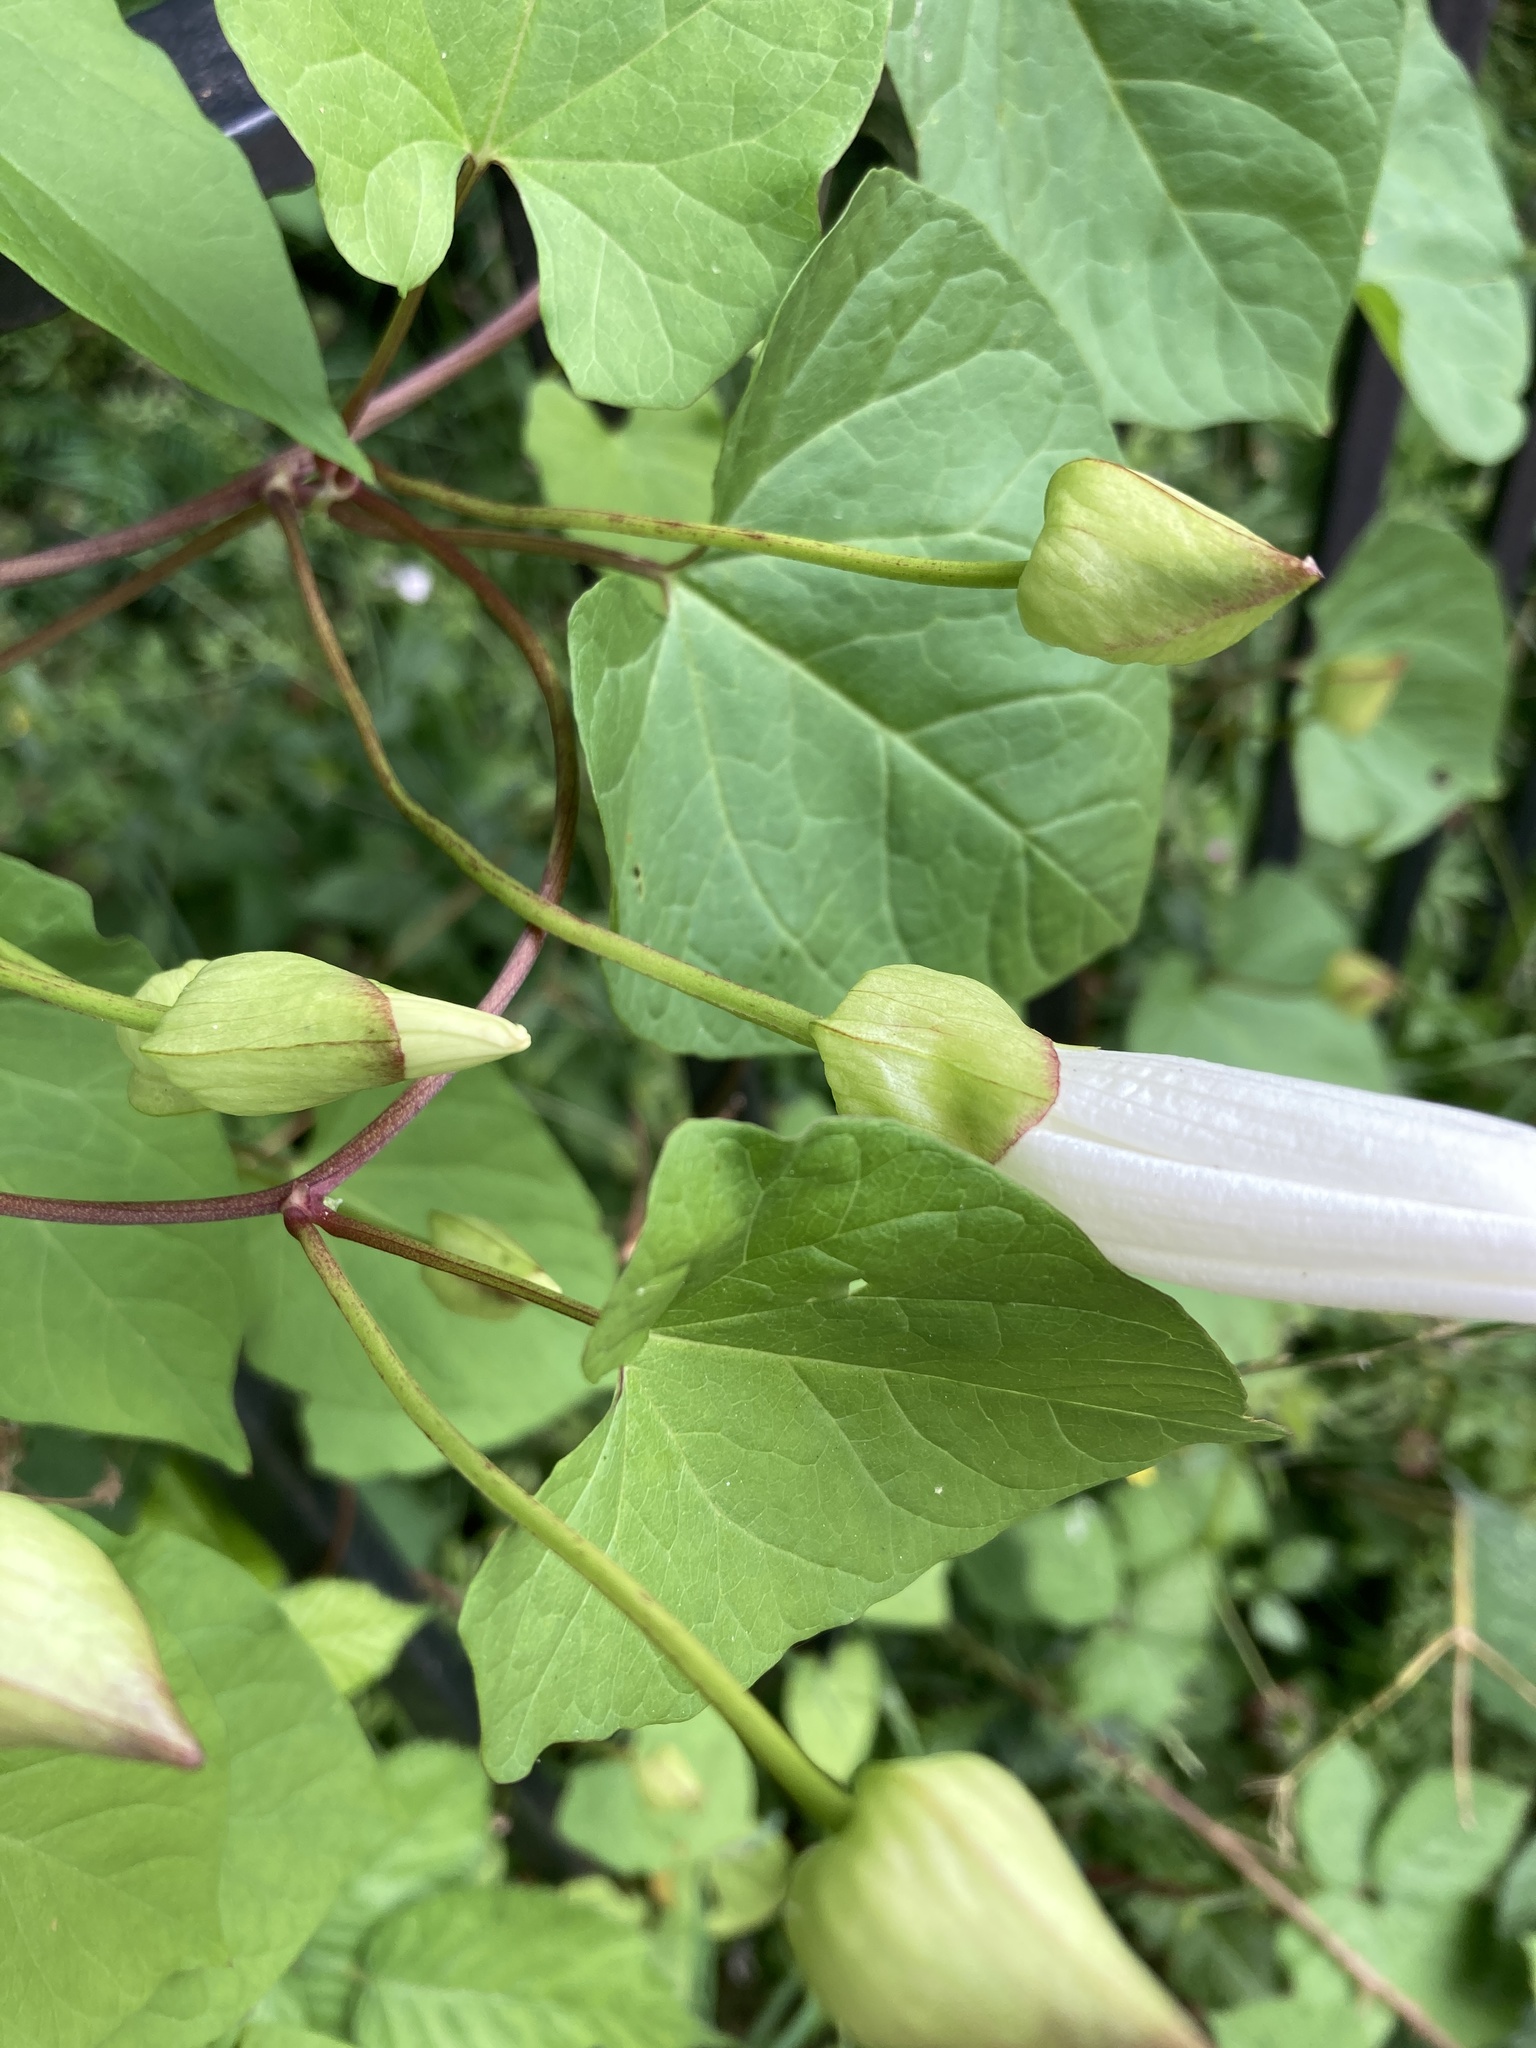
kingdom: Plantae
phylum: Tracheophyta
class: Magnoliopsida
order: Solanales
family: Convolvulaceae
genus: Calystegia
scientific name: Calystegia silvatica
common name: Large bindweed
